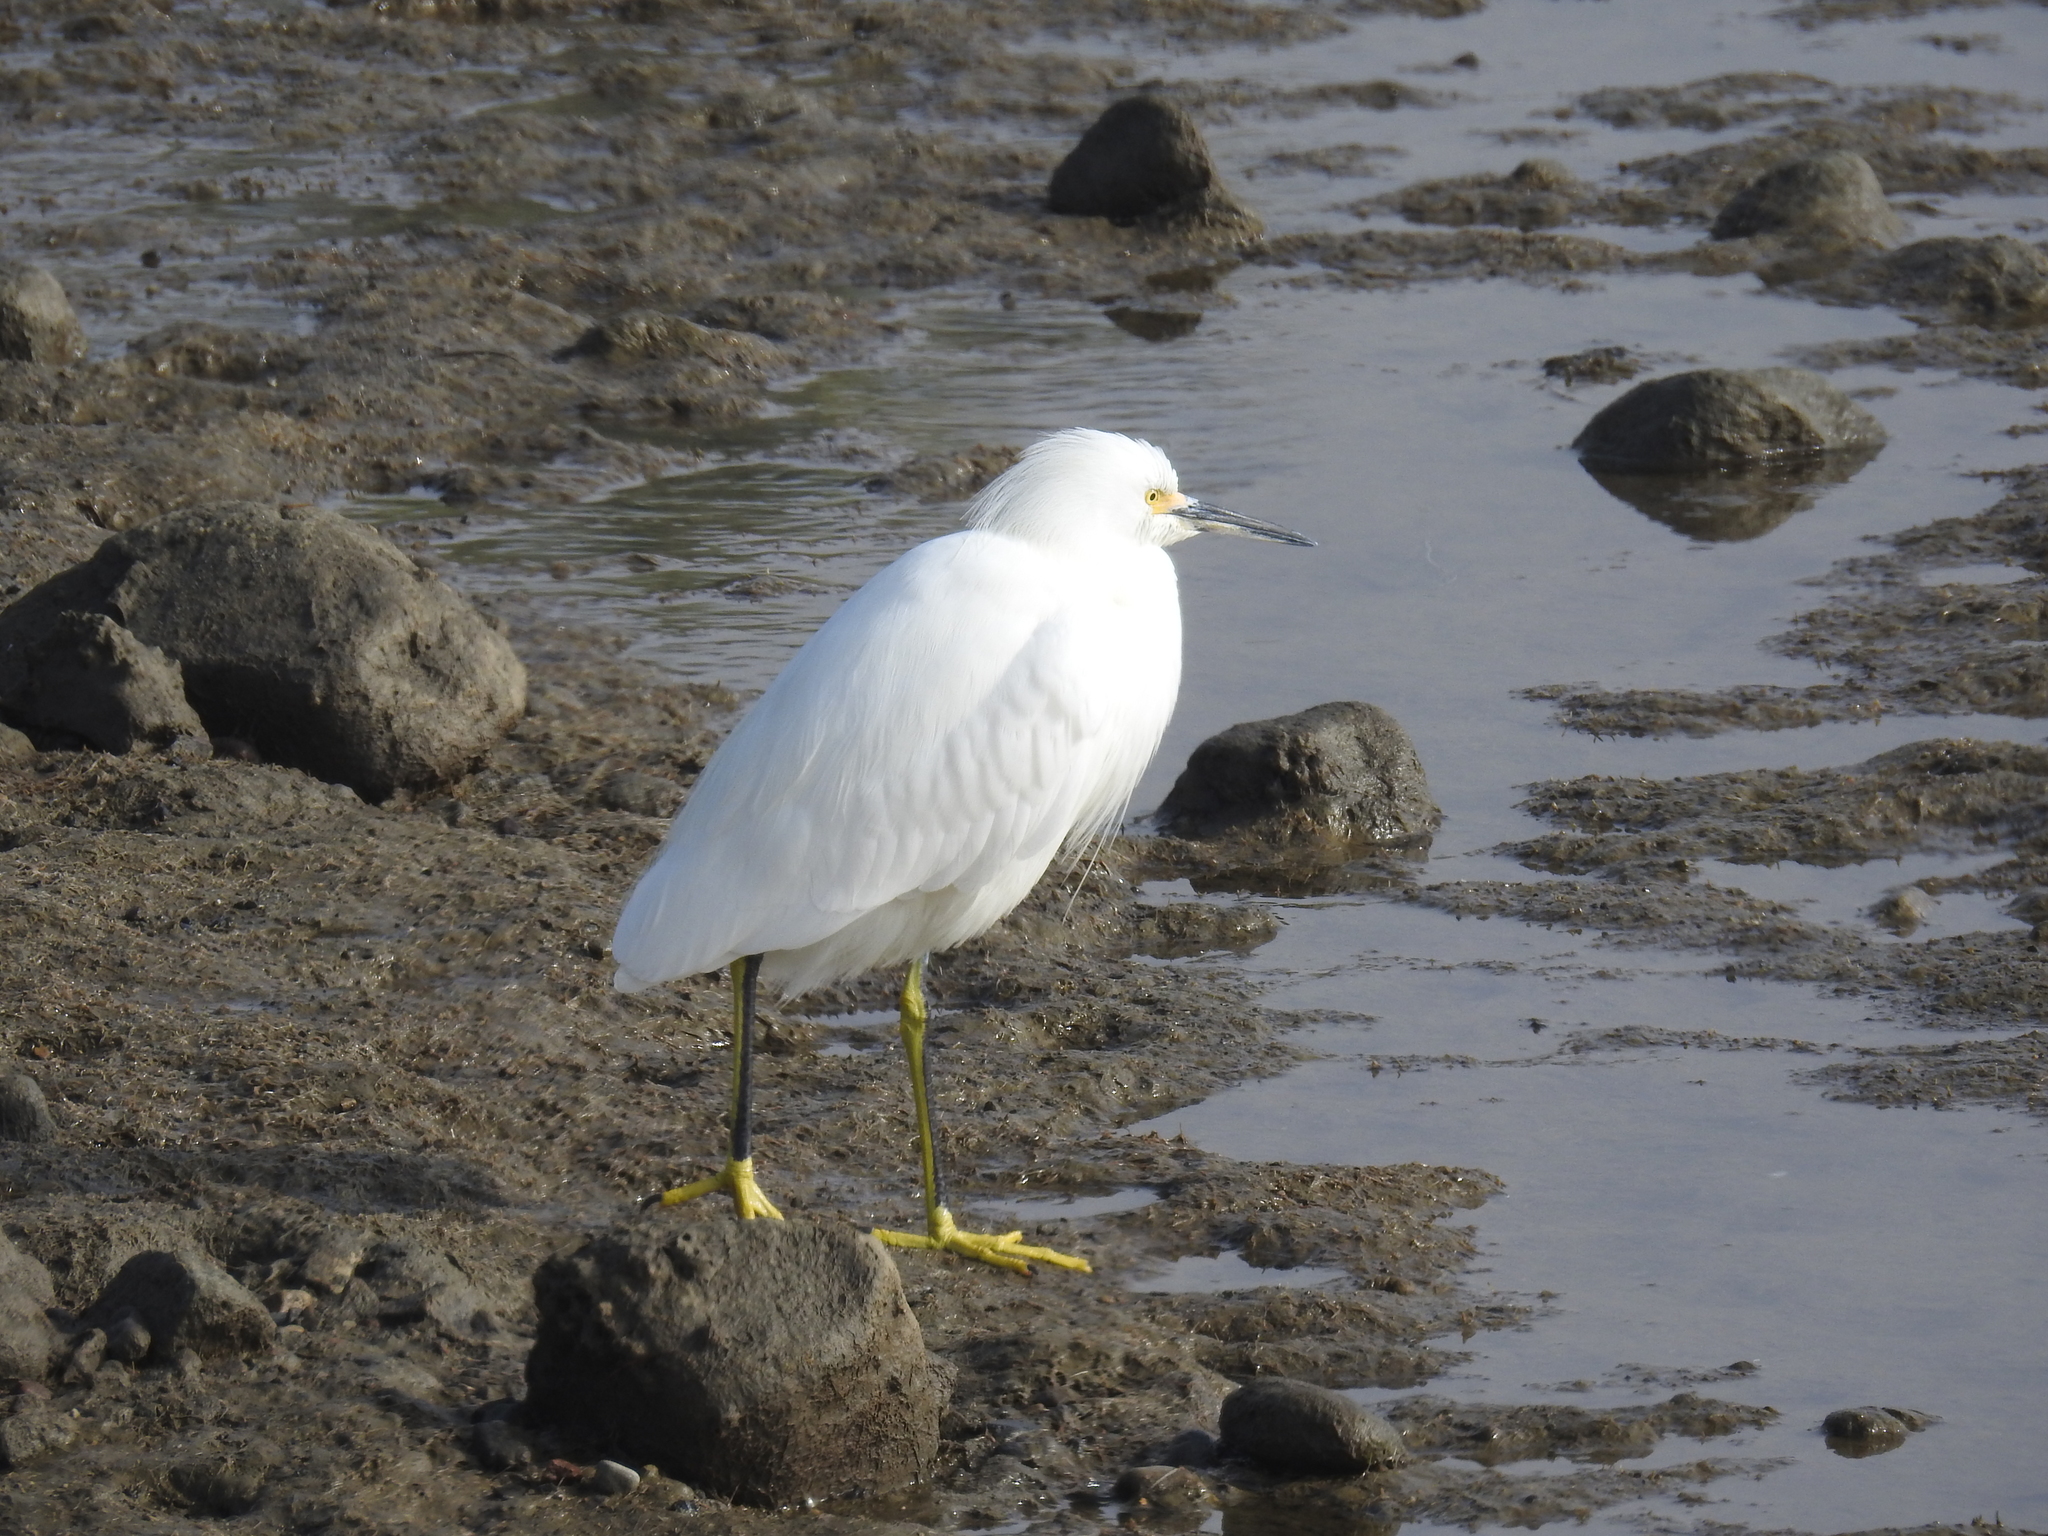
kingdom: Animalia
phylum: Chordata
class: Aves
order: Pelecaniformes
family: Ardeidae
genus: Egretta
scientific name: Egretta thula
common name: Snowy egret
